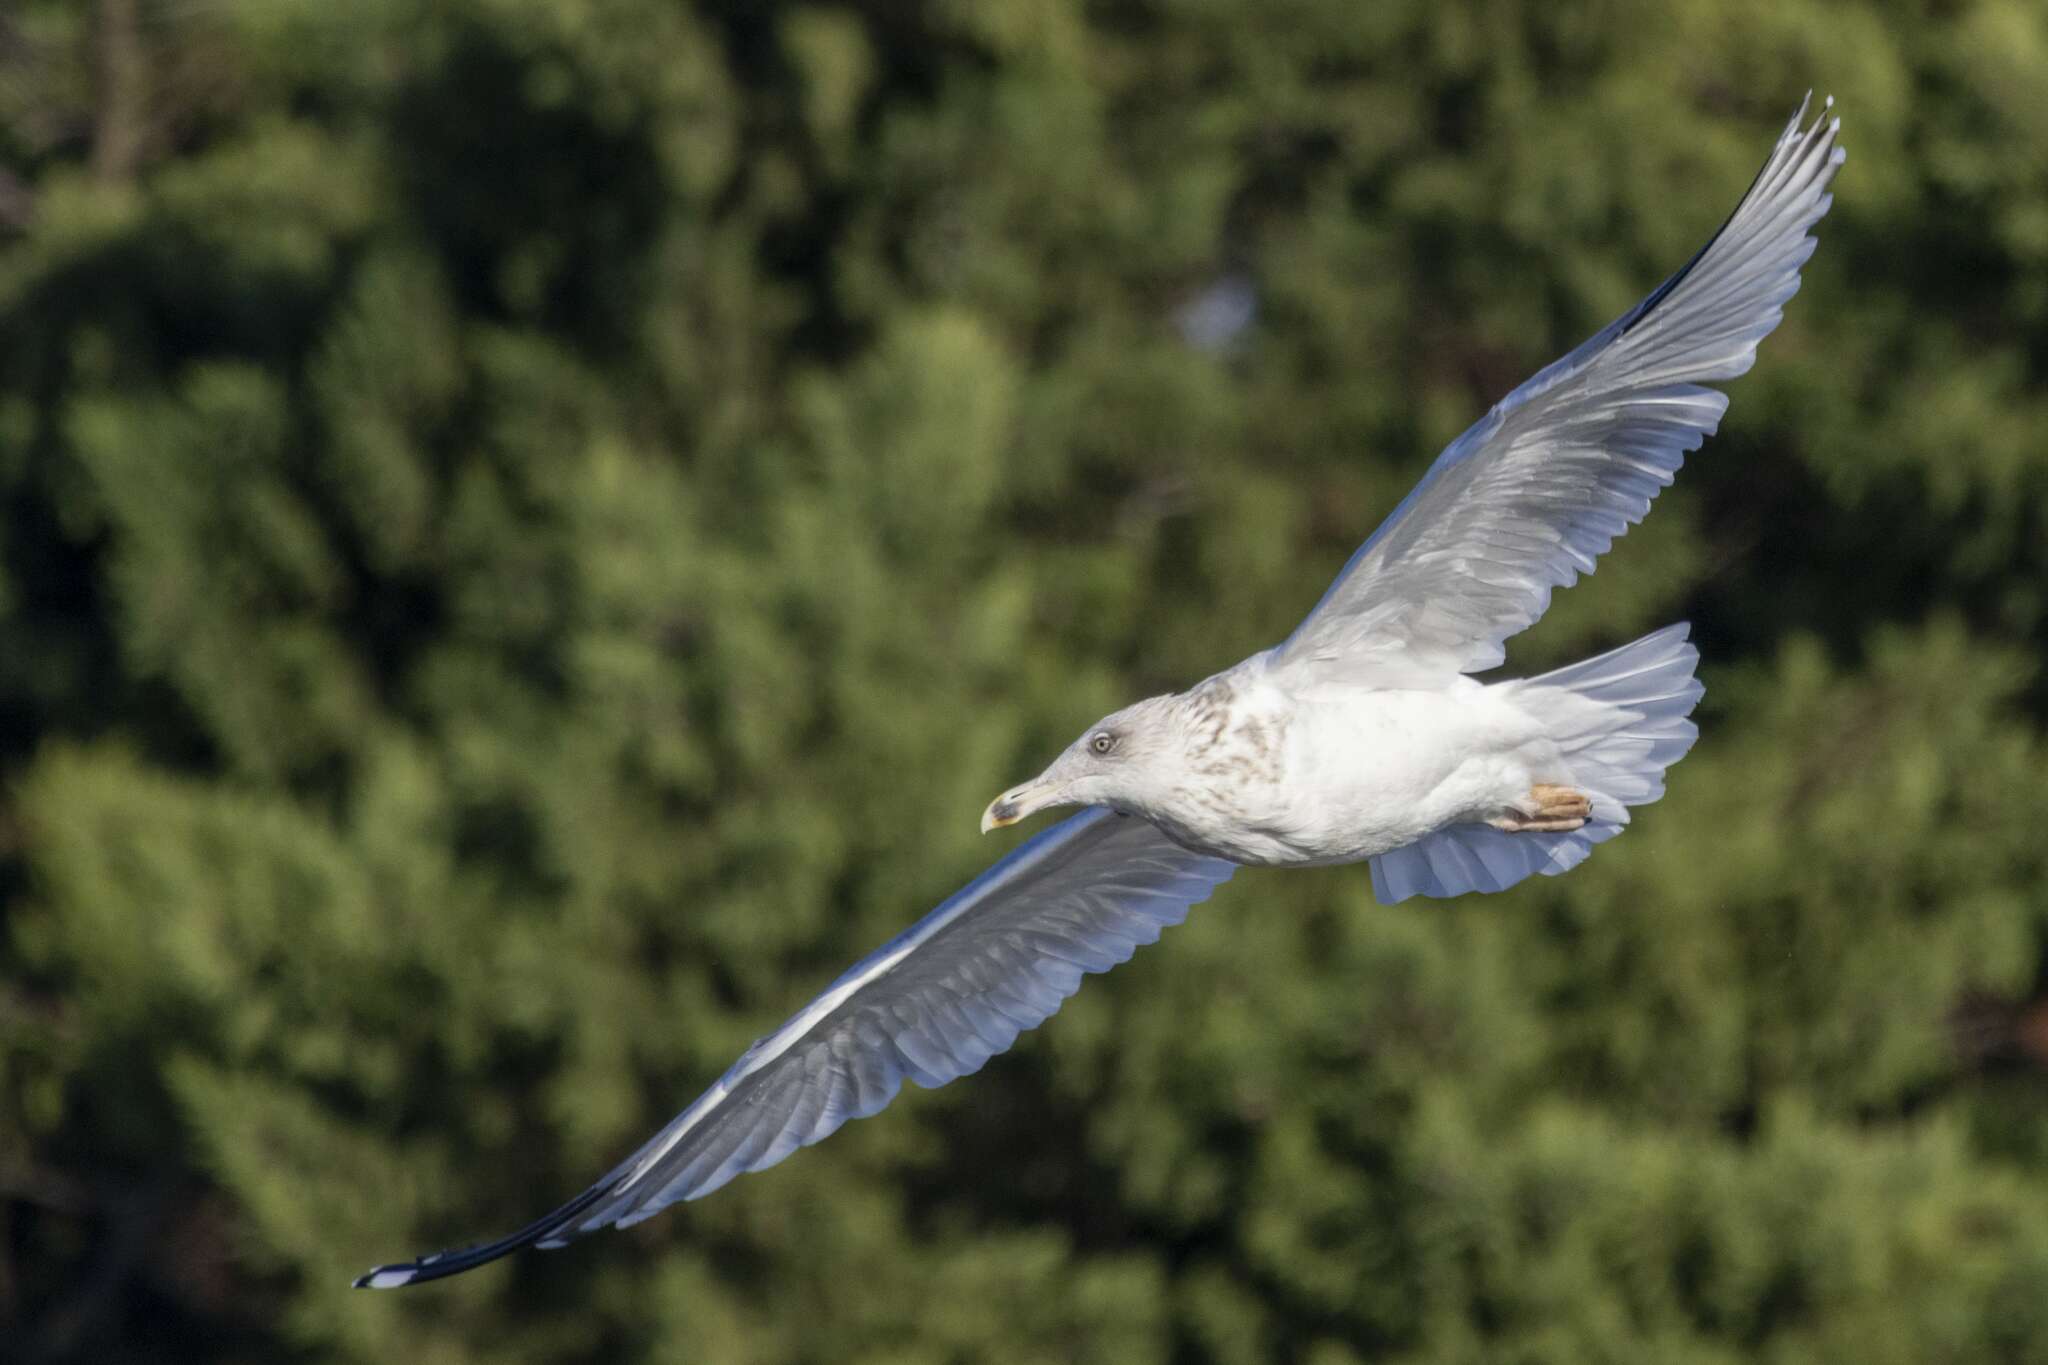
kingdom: Animalia
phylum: Chordata
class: Aves
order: Charadriiformes
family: Laridae
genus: Larus
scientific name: Larus argentatus
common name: Herring gull
